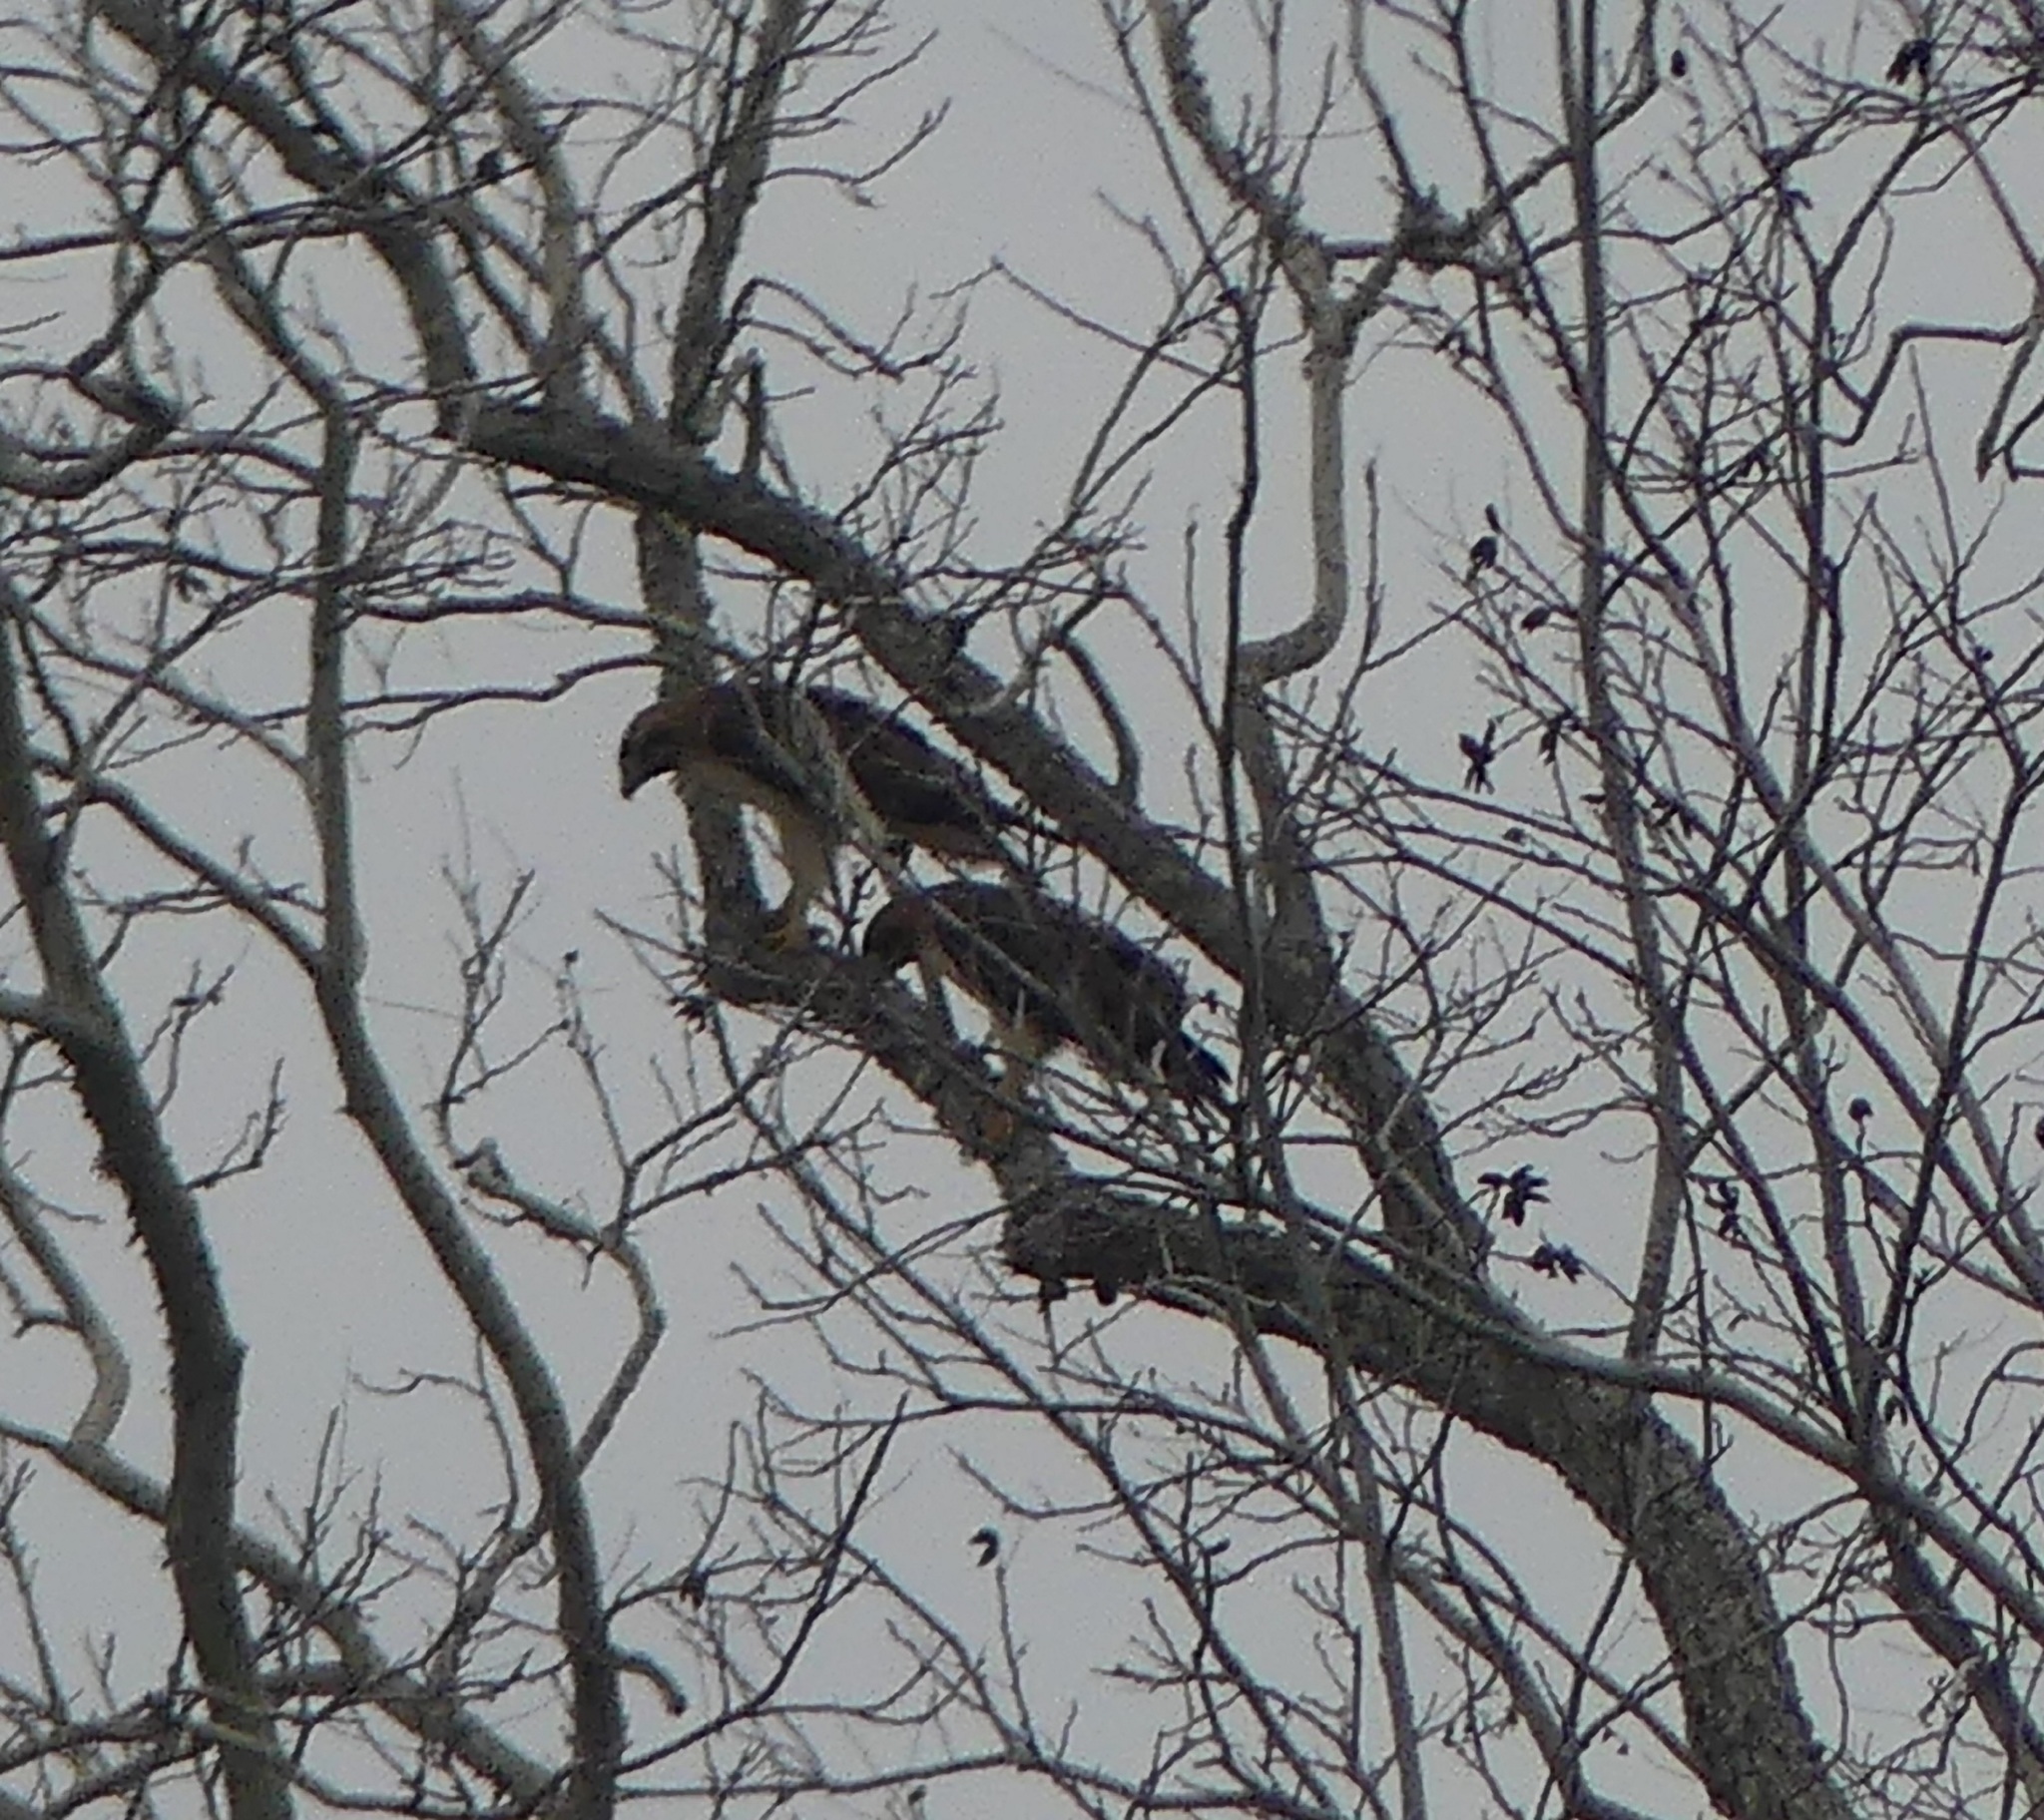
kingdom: Animalia
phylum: Chordata
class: Aves
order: Accipitriformes
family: Accipitridae
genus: Buteo
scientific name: Buteo jamaicensis
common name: Red-tailed hawk
